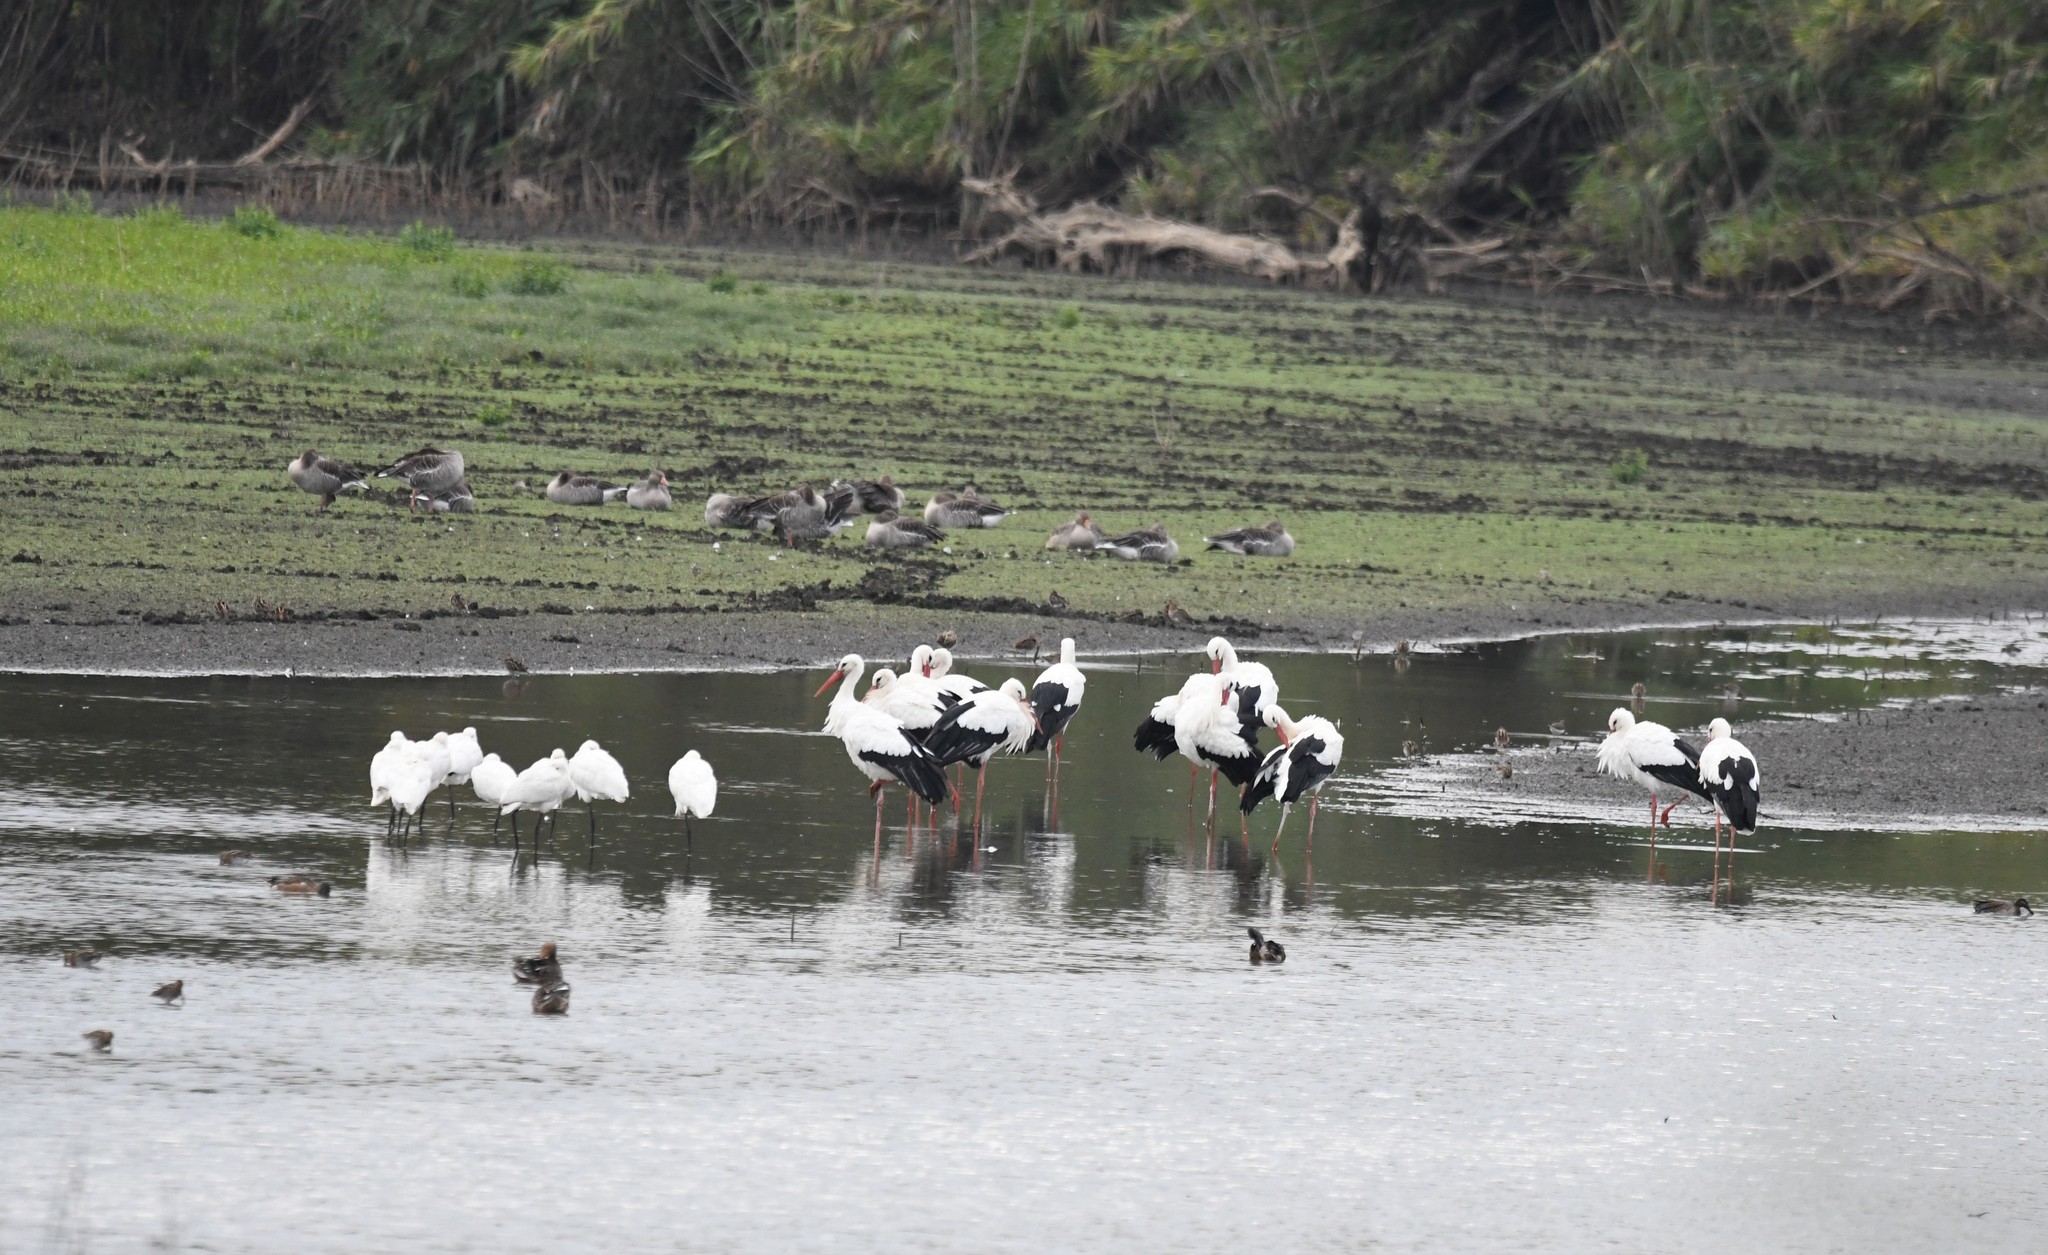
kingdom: Animalia
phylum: Chordata
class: Aves
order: Ciconiiformes
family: Ciconiidae
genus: Ciconia
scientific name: Ciconia ciconia
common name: White stork
